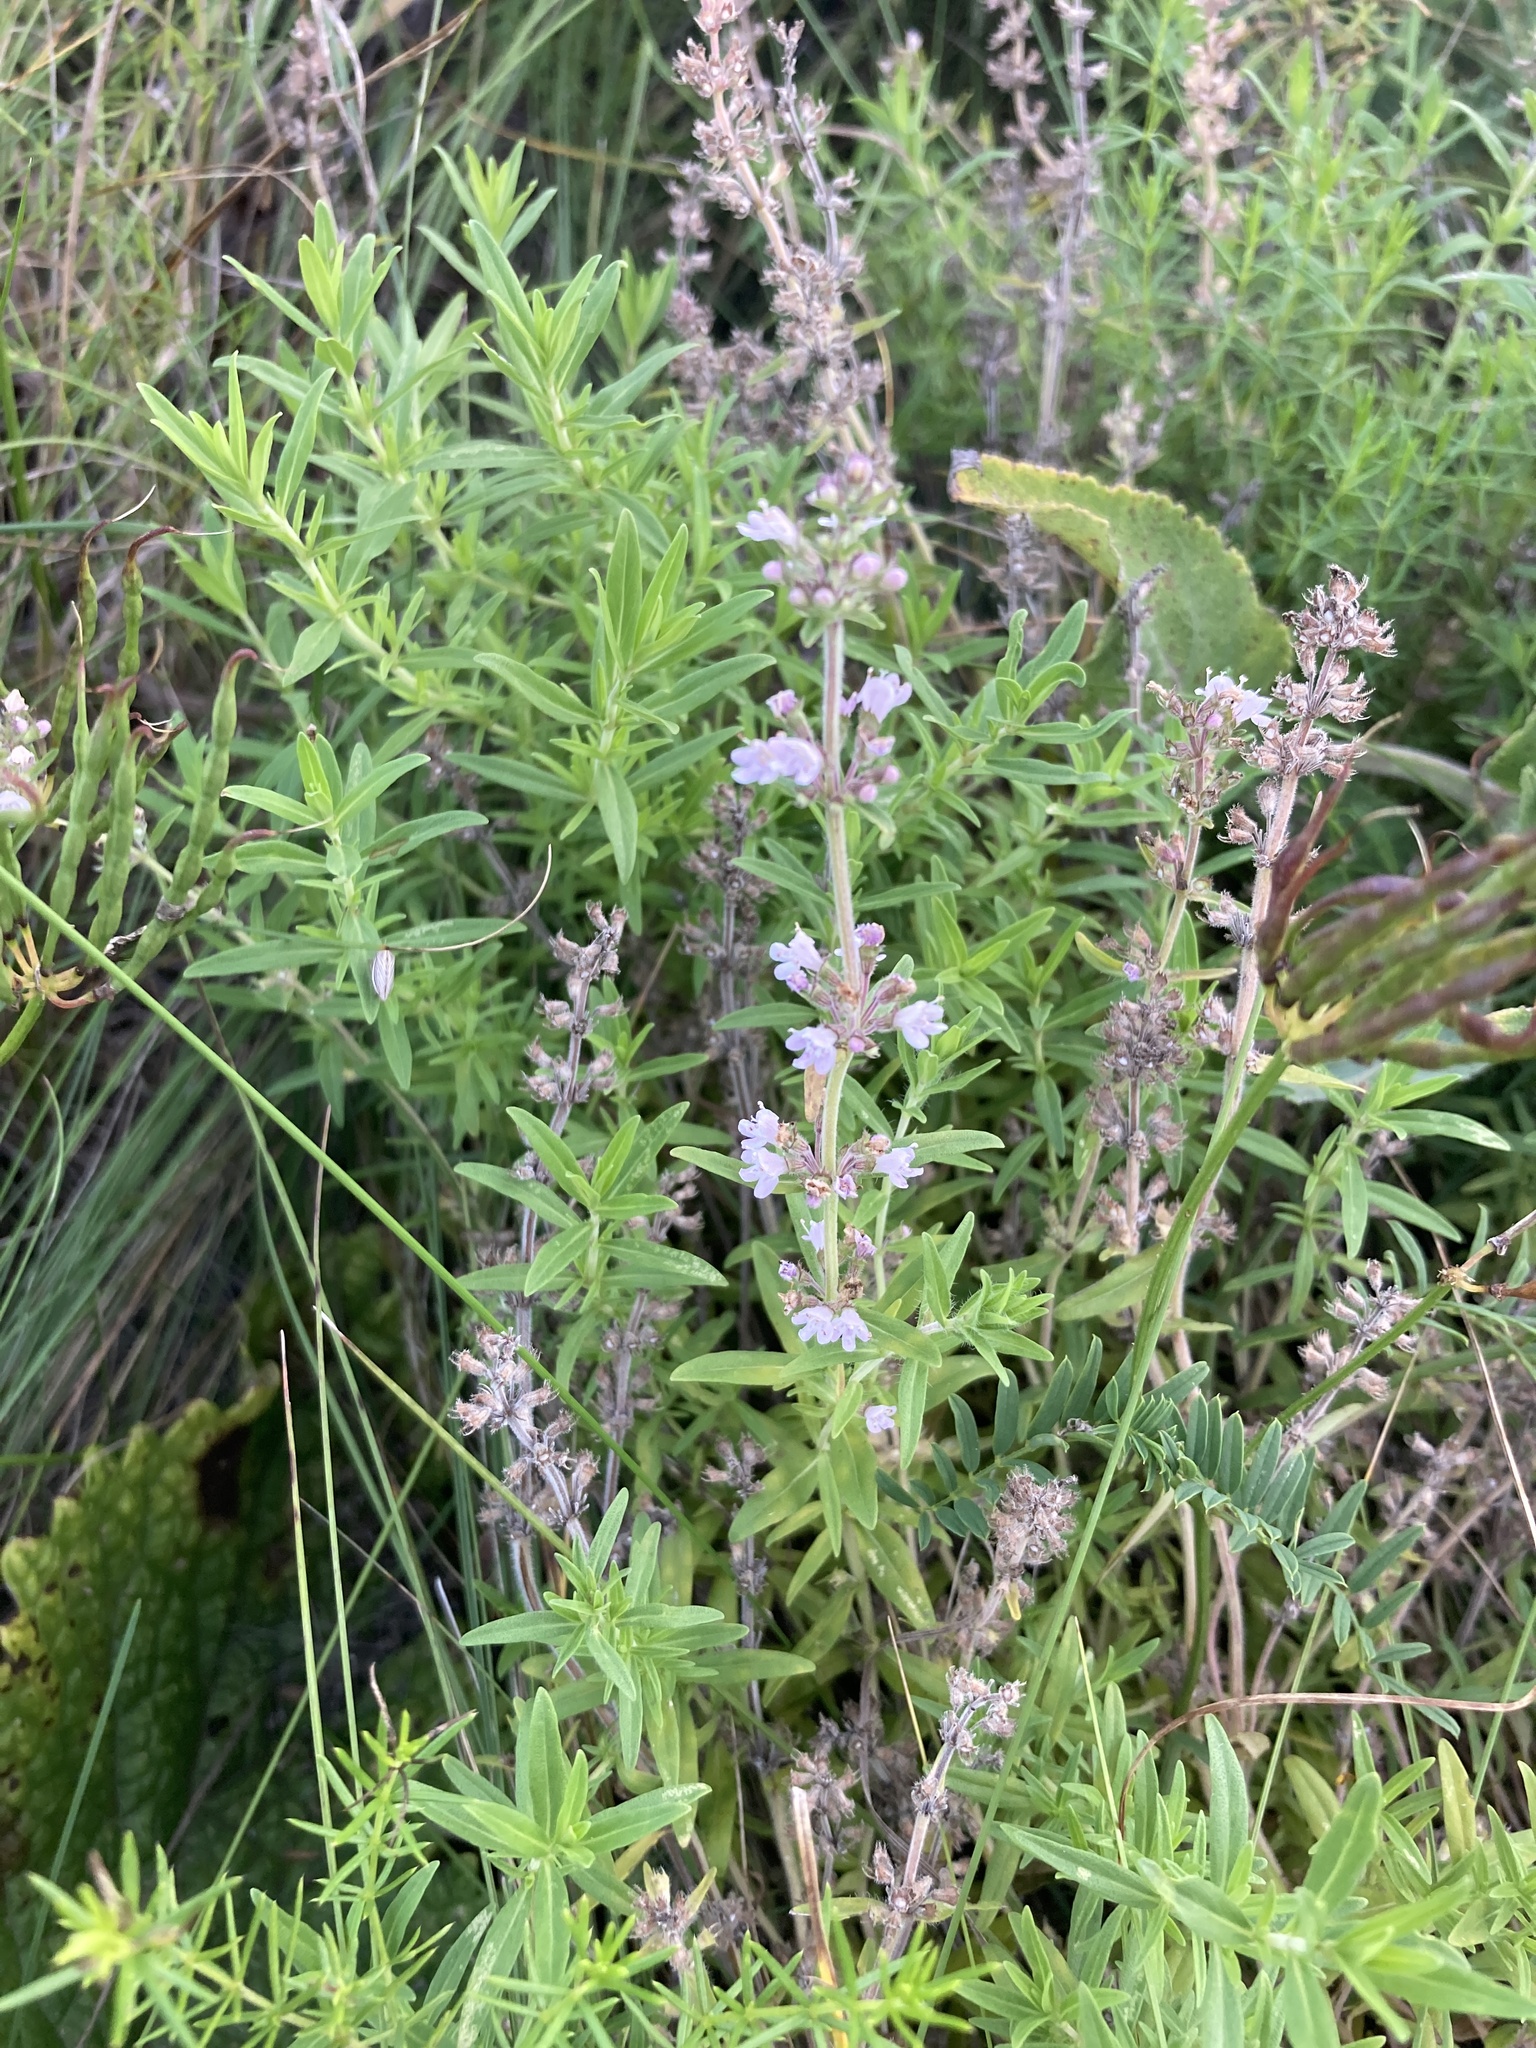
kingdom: Plantae
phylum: Tracheophyta
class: Magnoliopsida
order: Lamiales
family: Lamiaceae
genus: Thymus
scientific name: Thymus pannonicus
